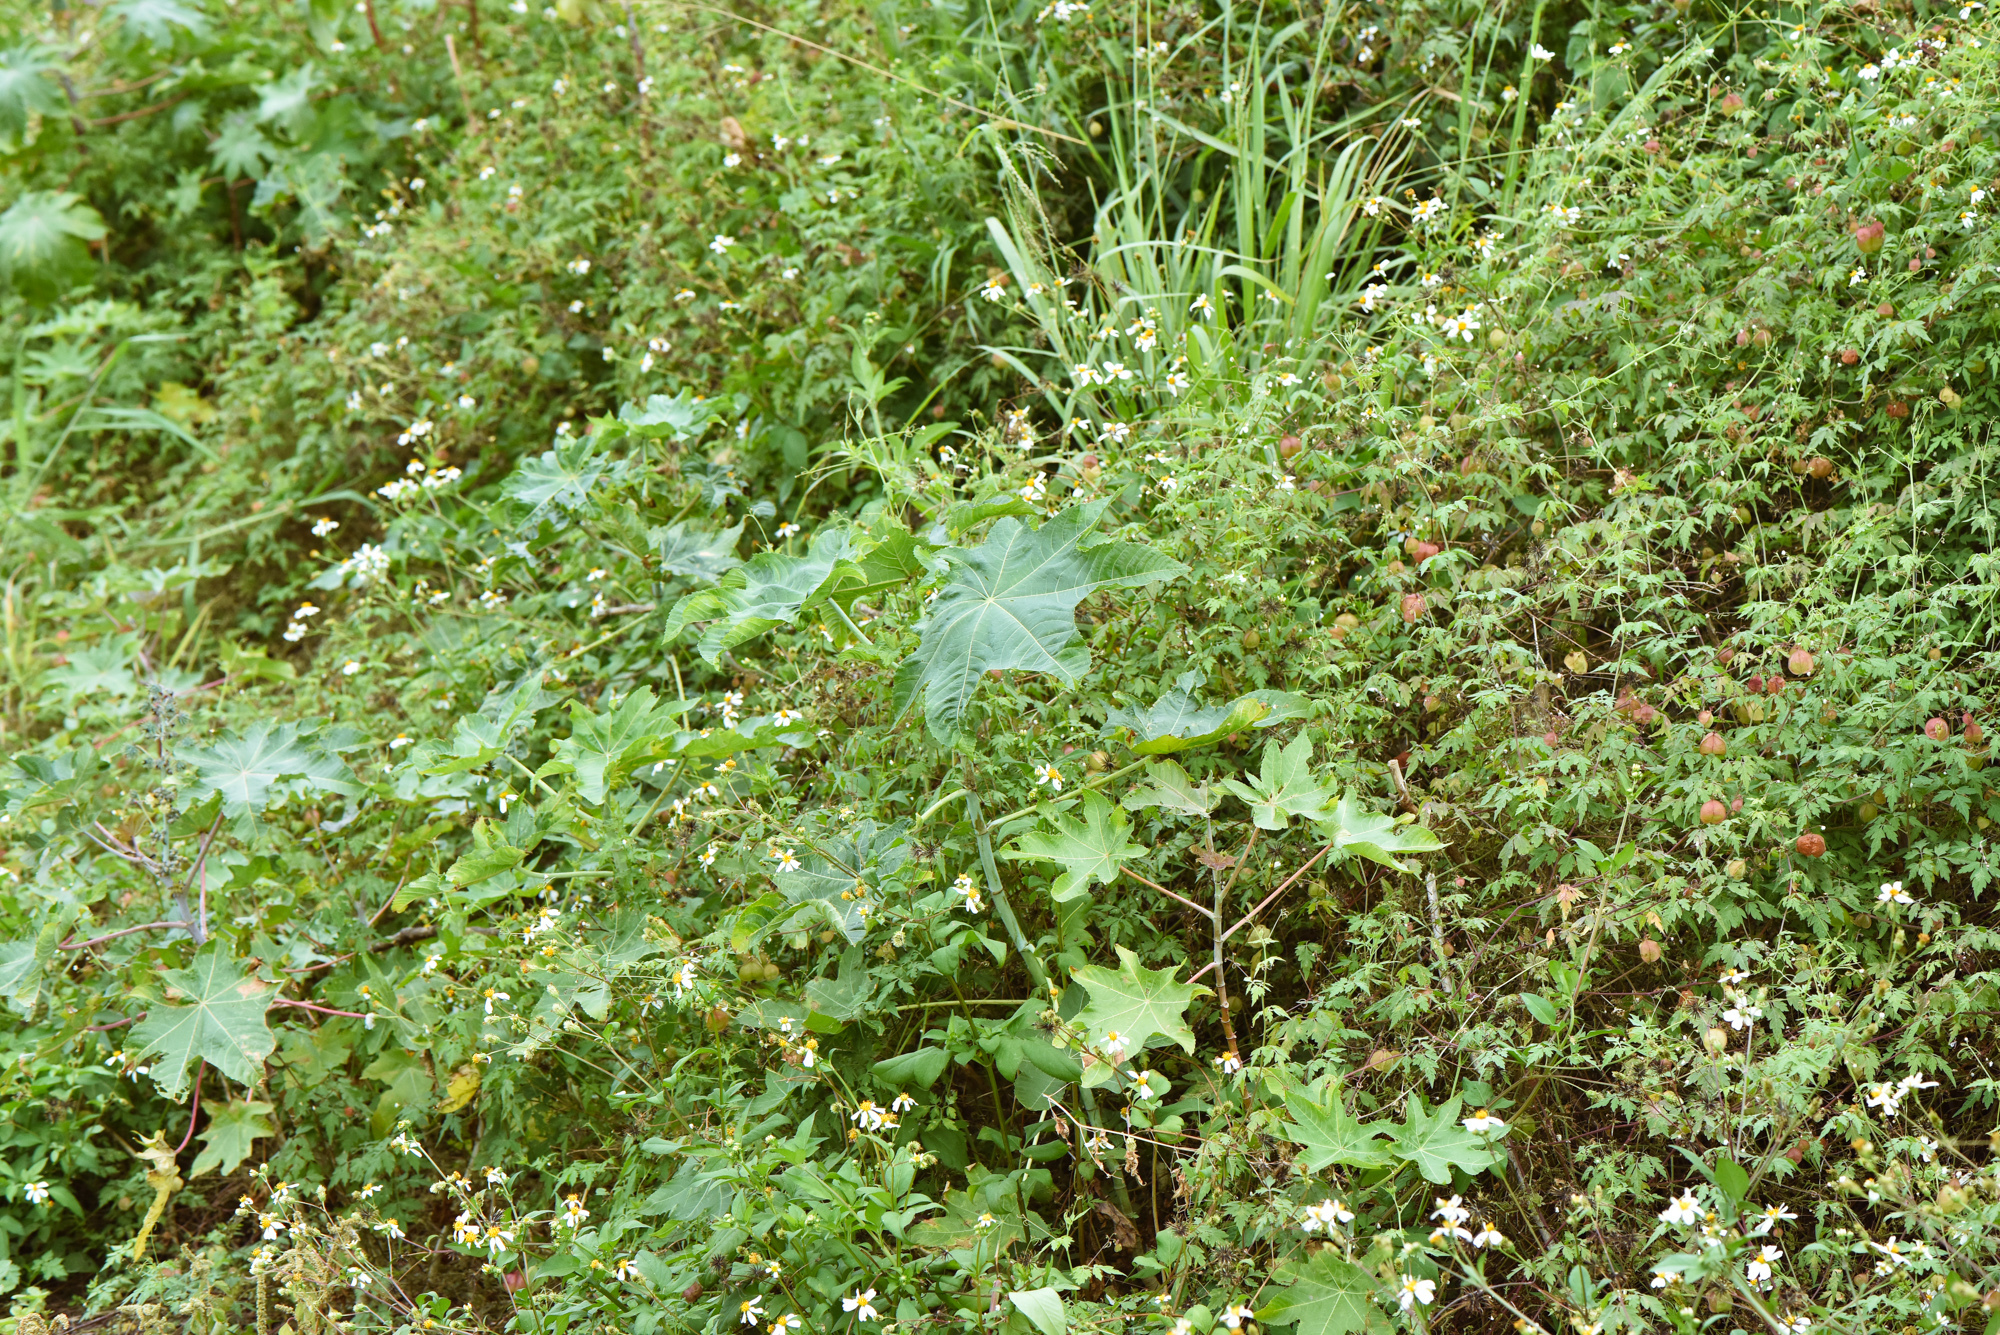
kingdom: Plantae
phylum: Tracheophyta
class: Magnoliopsida
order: Malpighiales
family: Euphorbiaceae
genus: Ricinus
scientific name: Ricinus communis
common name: Castor-oil-plant
